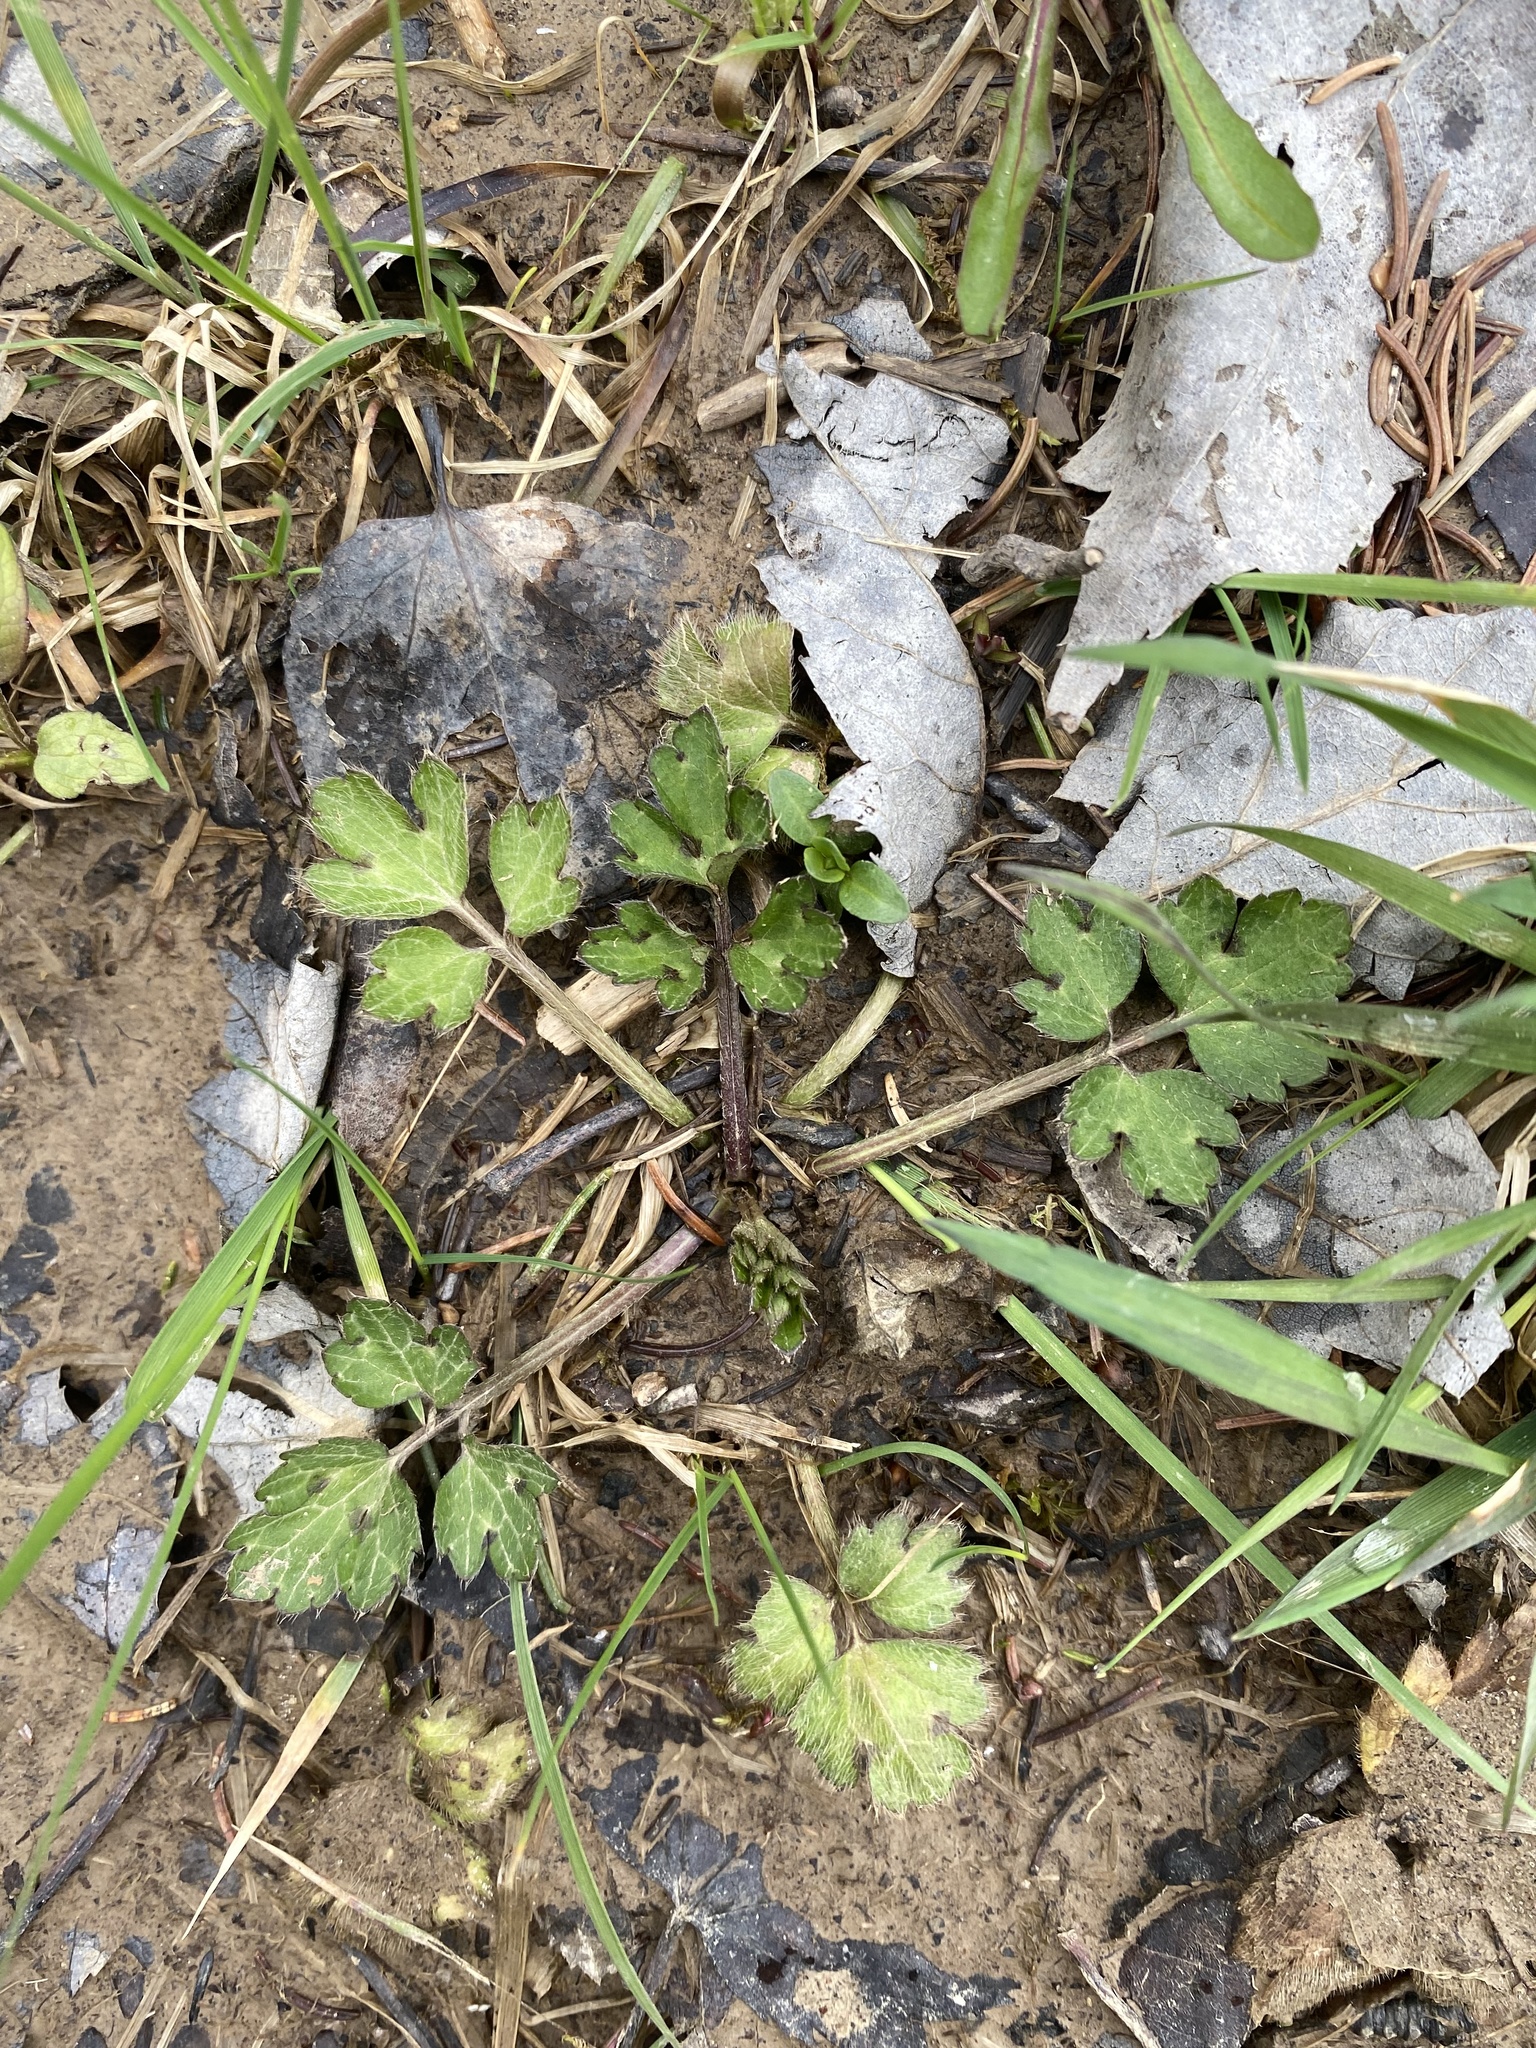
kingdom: Plantae
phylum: Tracheophyta
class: Magnoliopsida
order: Ranunculales
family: Ranunculaceae
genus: Ranunculus
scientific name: Ranunculus repens
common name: Creeping buttercup
